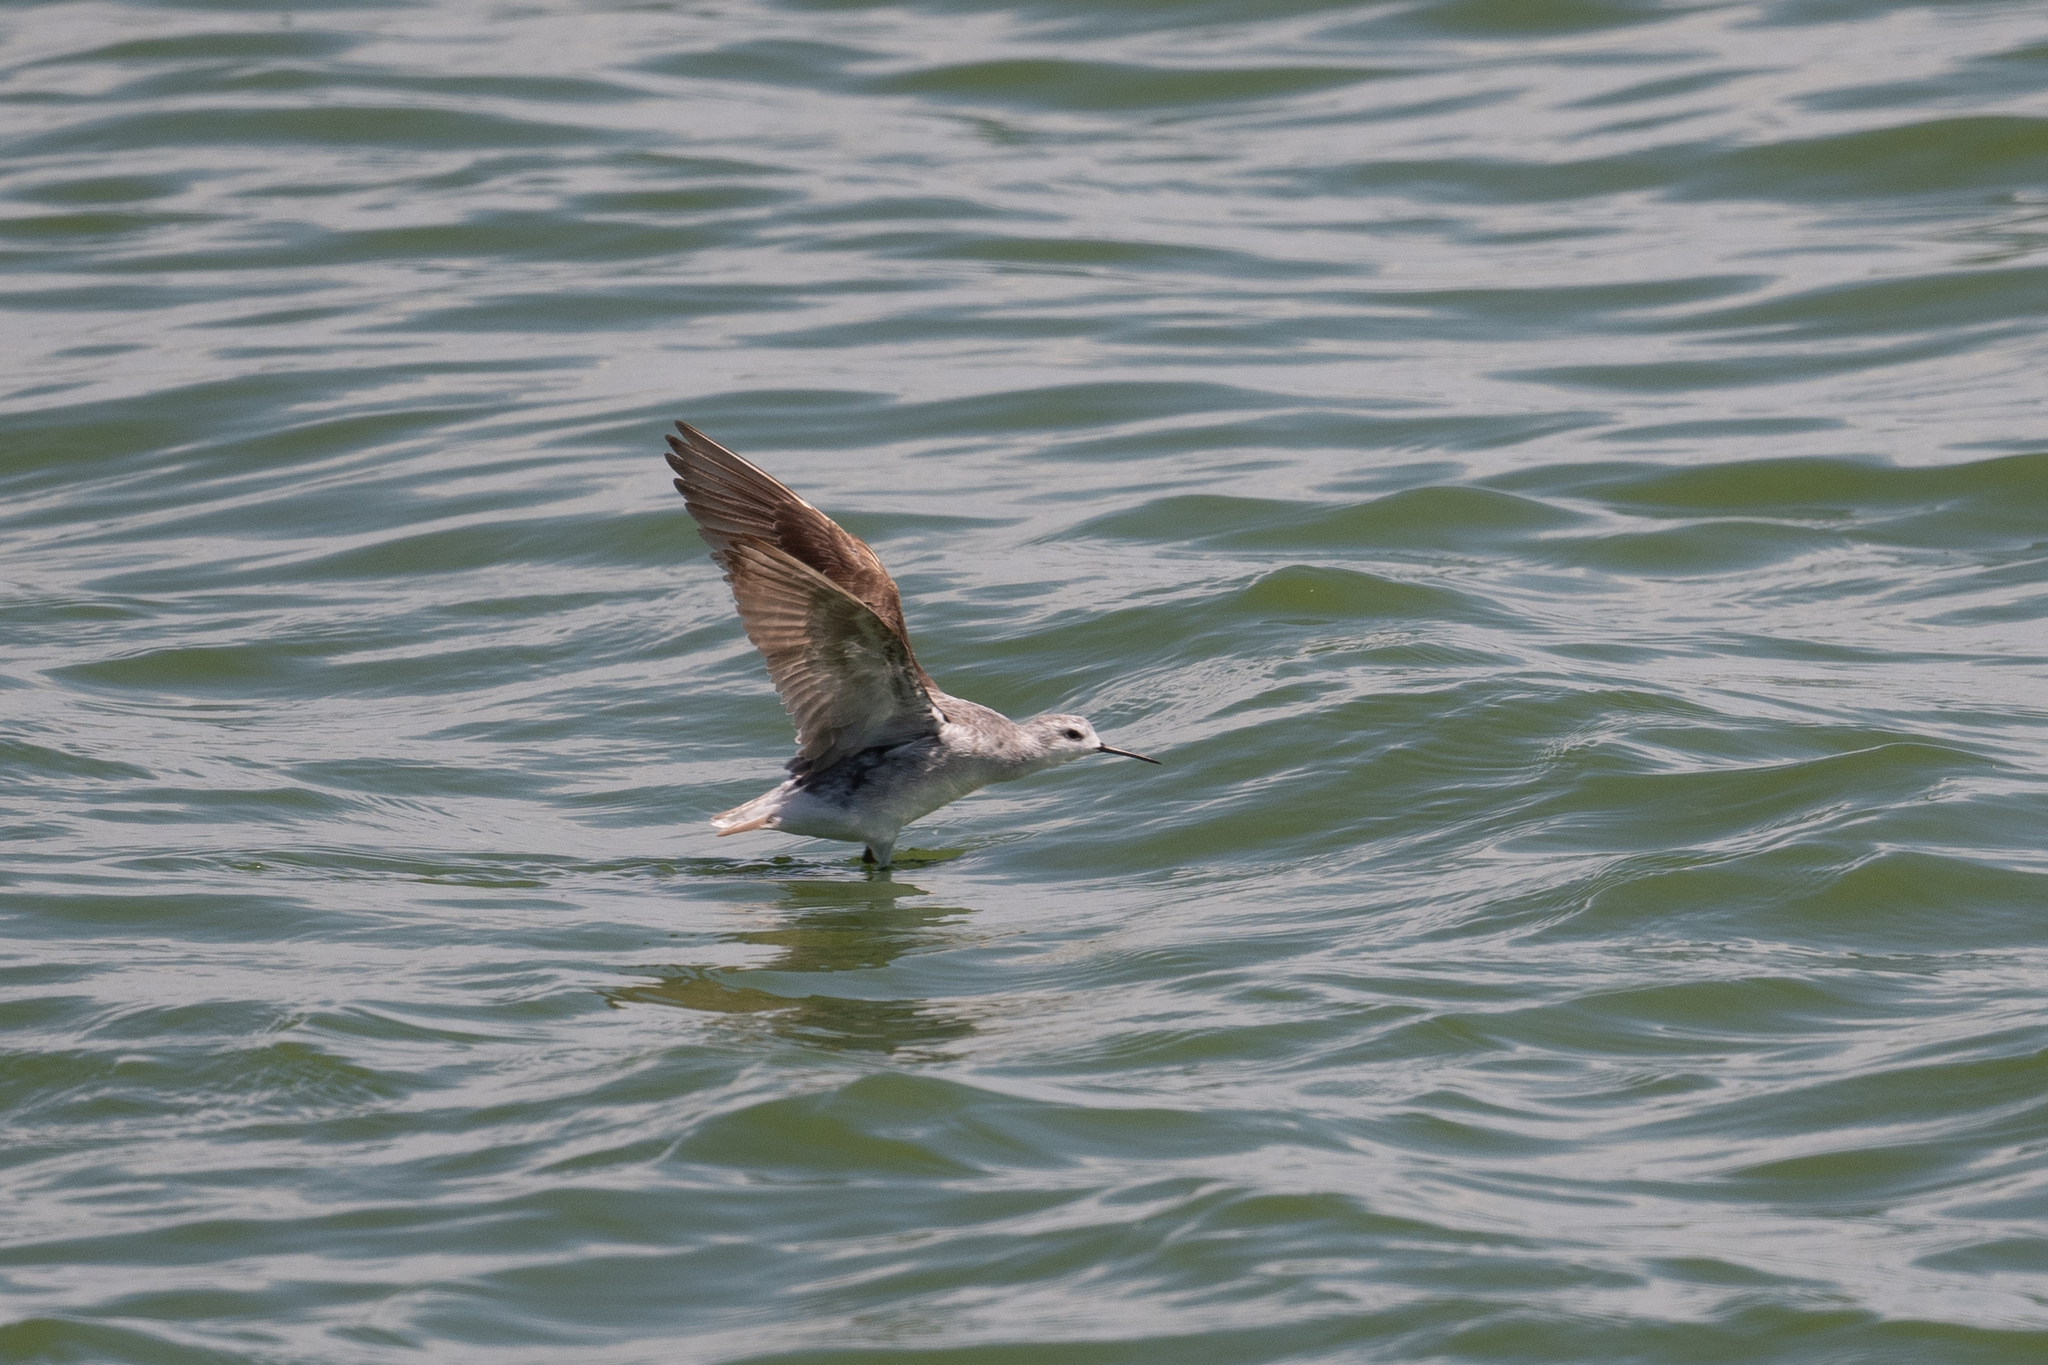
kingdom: Animalia
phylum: Chordata
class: Aves
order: Charadriiformes
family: Scolopacidae
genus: Phalaropus
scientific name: Phalaropus tricolor
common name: Wilson's phalarope
